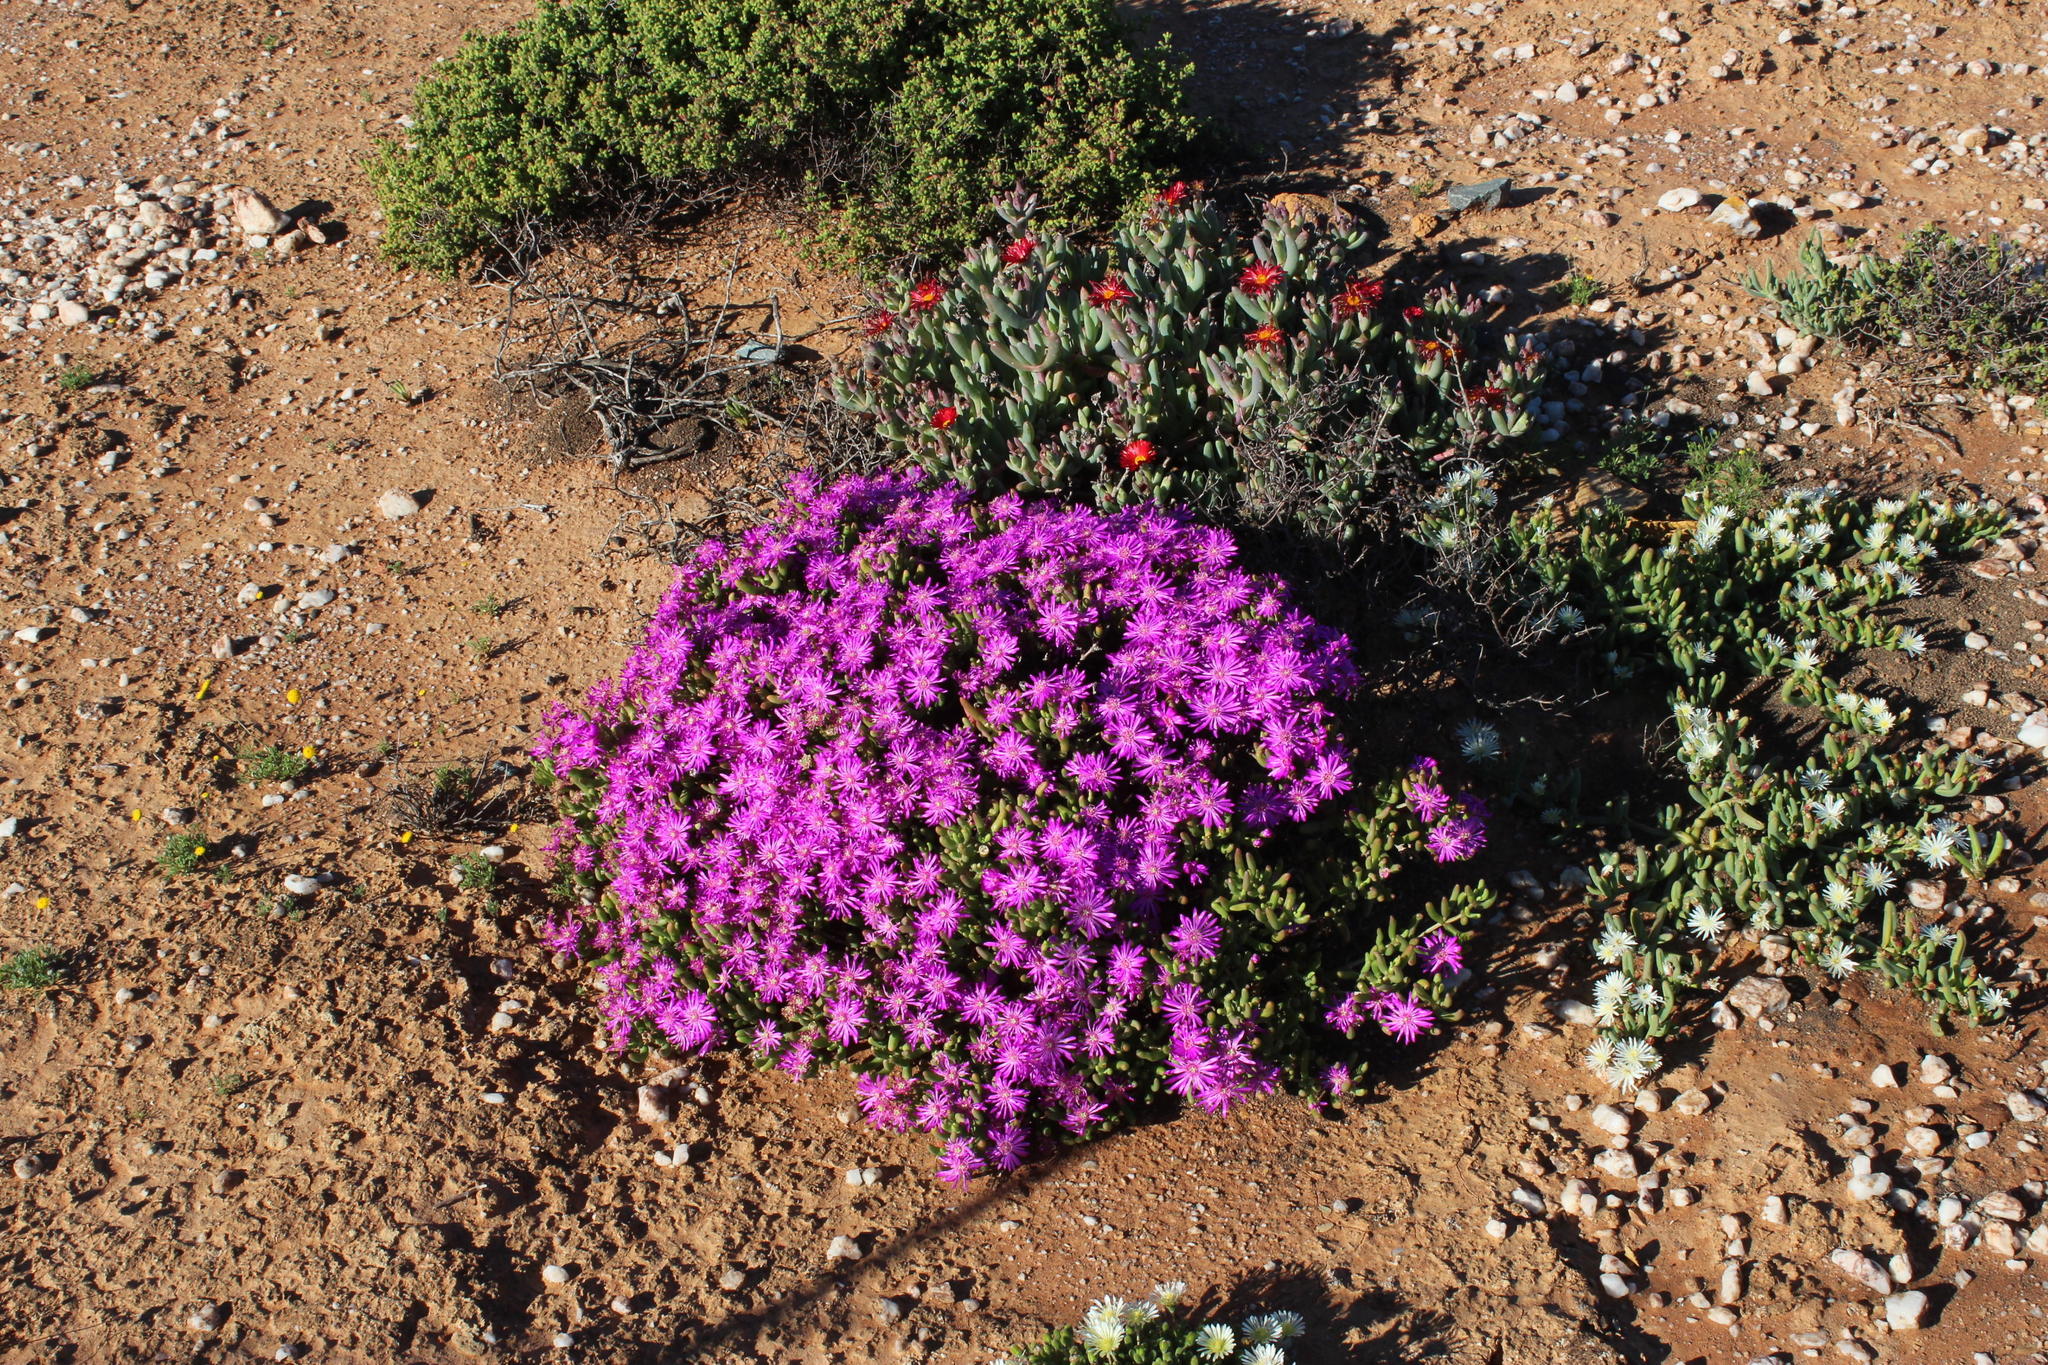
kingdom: Plantae
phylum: Tracheophyta
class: Magnoliopsida
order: Caryophyllales
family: Aizoaceae
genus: Lampranthus
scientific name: Lampranthus otzenianus
